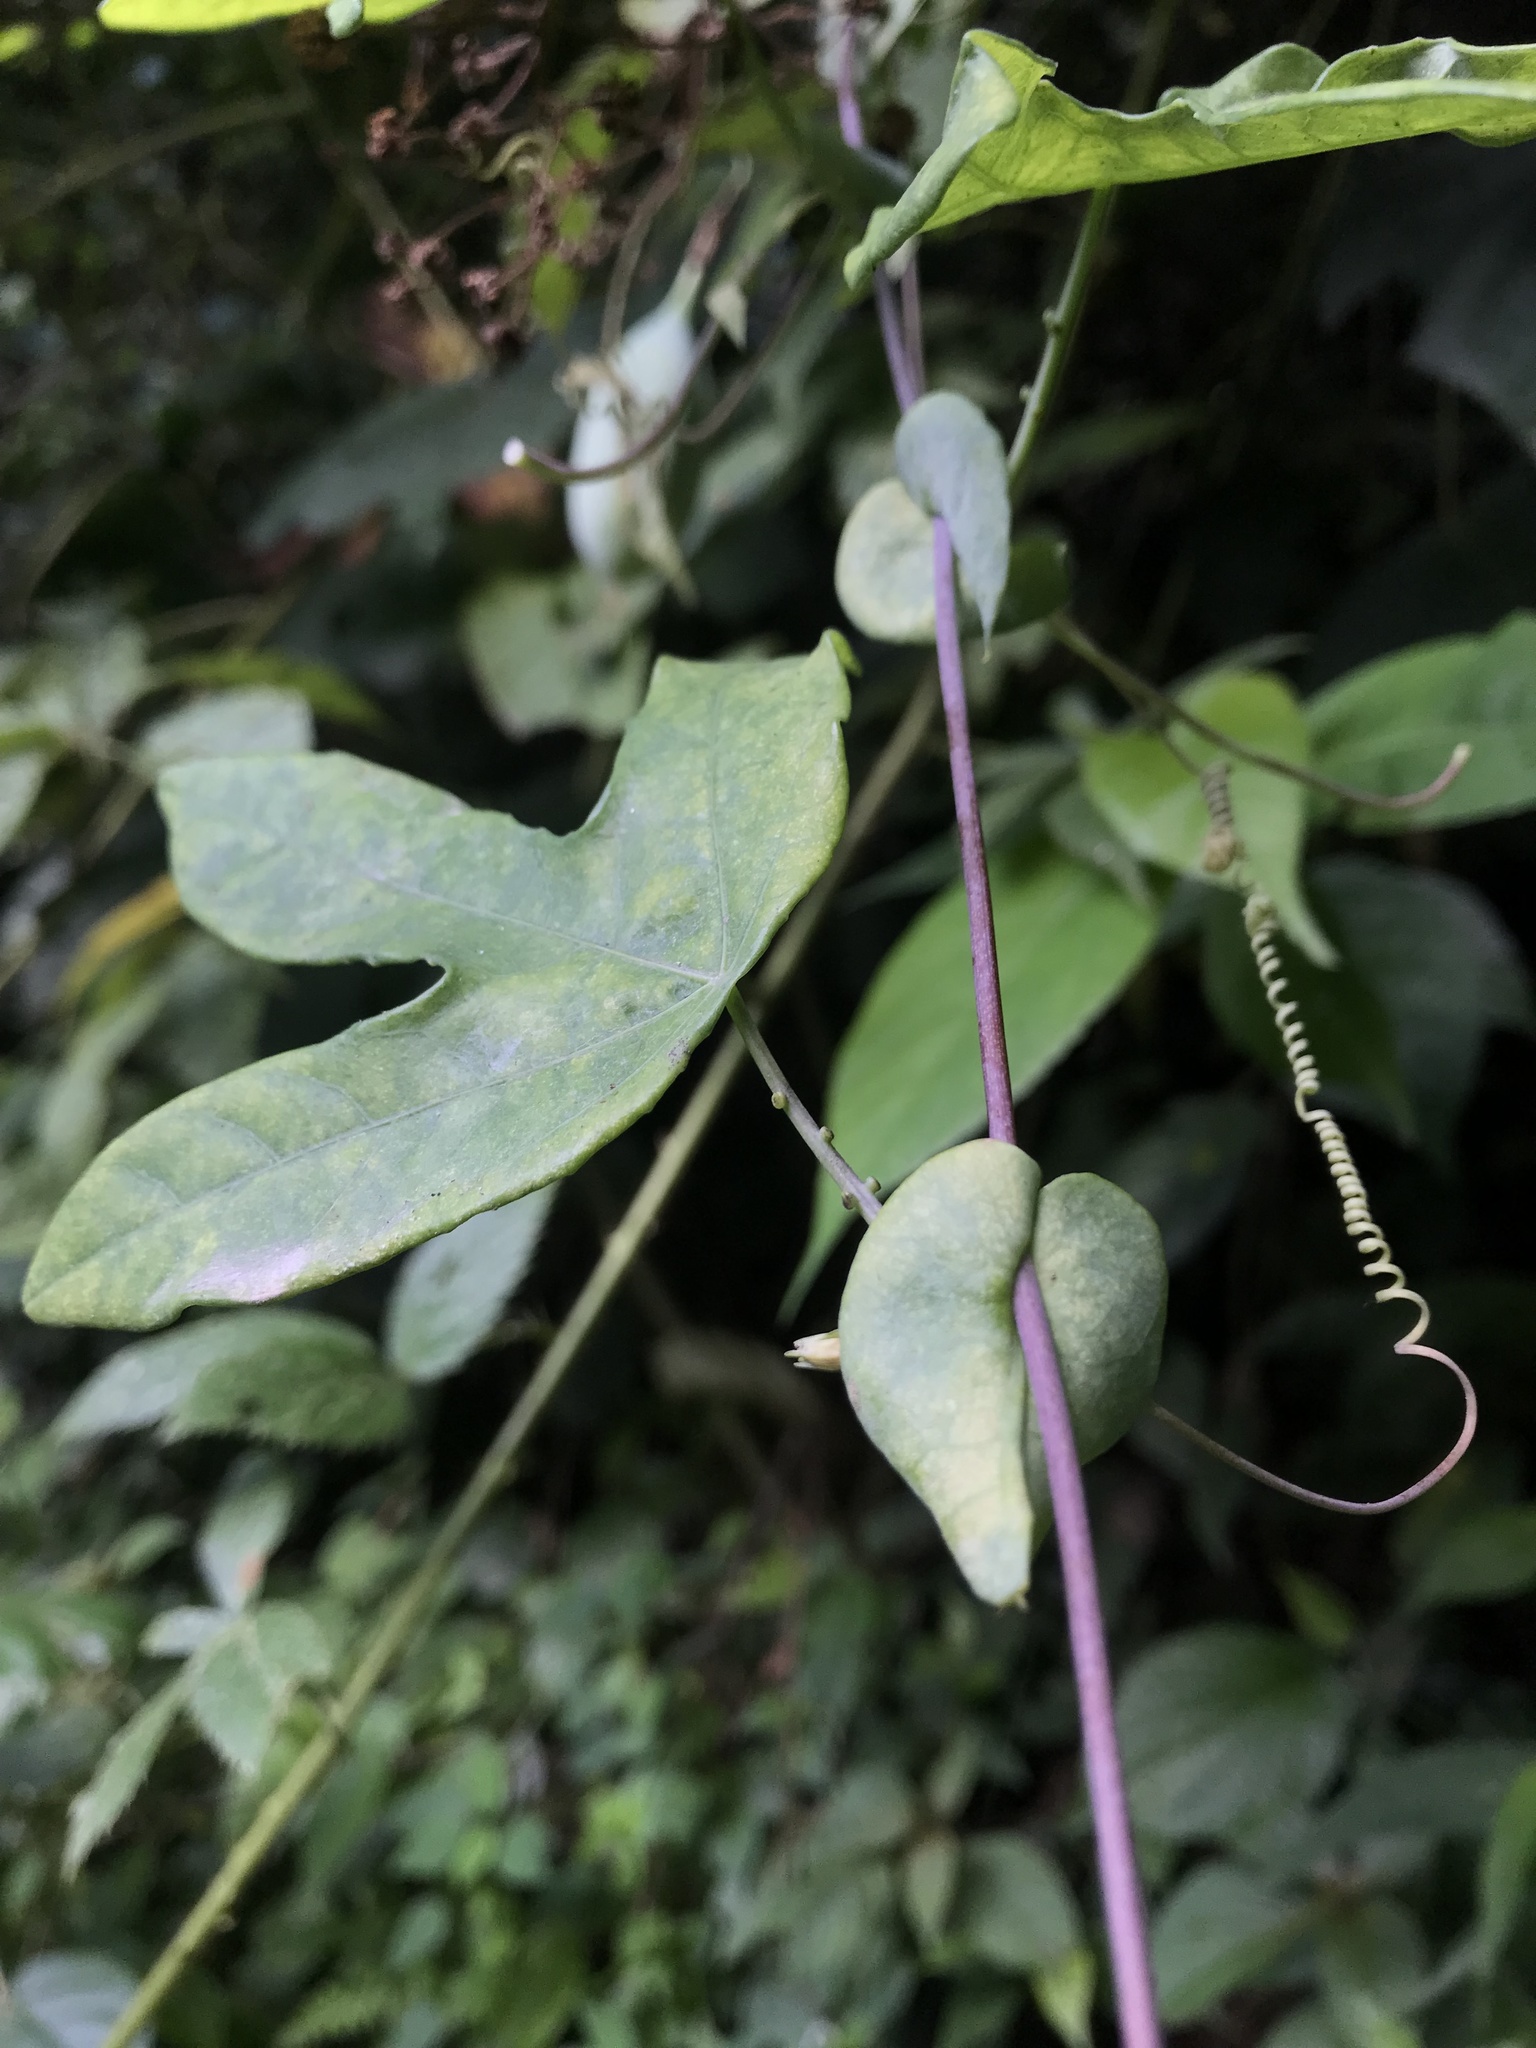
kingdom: Plantae
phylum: Tracheophyta
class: Magnoliopsida
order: Malpighiales
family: Passifloraceae
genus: Passiflora
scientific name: Passiflora smithii
